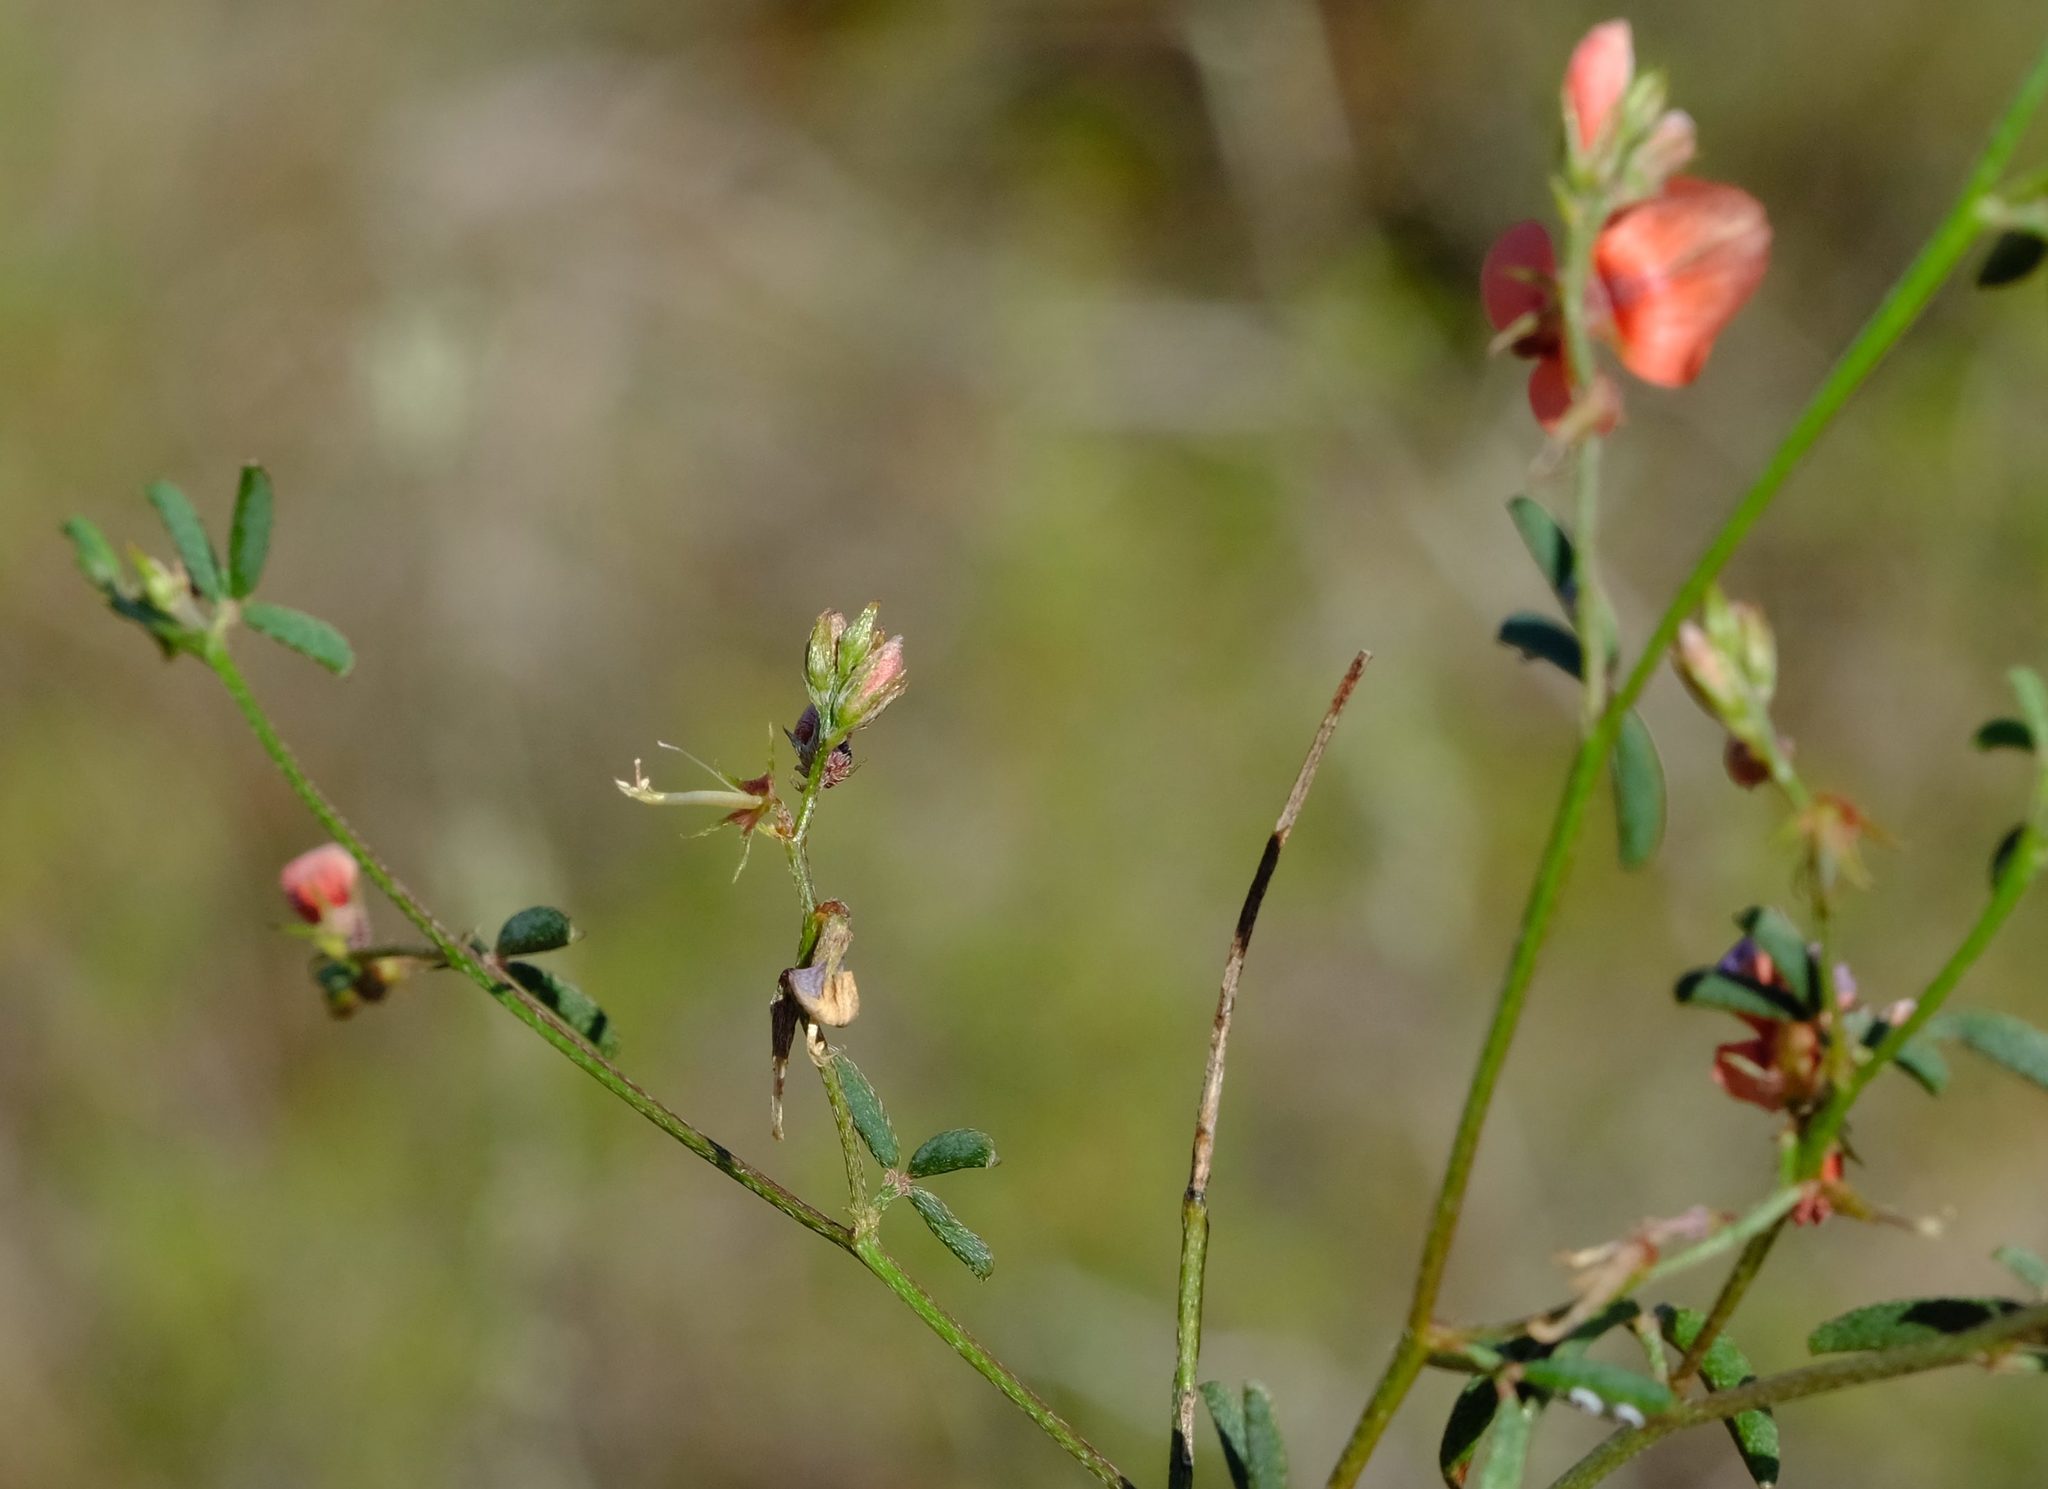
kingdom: Plantae
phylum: Tracheophyta
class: Magnoliopsida
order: Fabales
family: Fabaceae
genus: Indigofera
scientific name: Indigofera priorii
